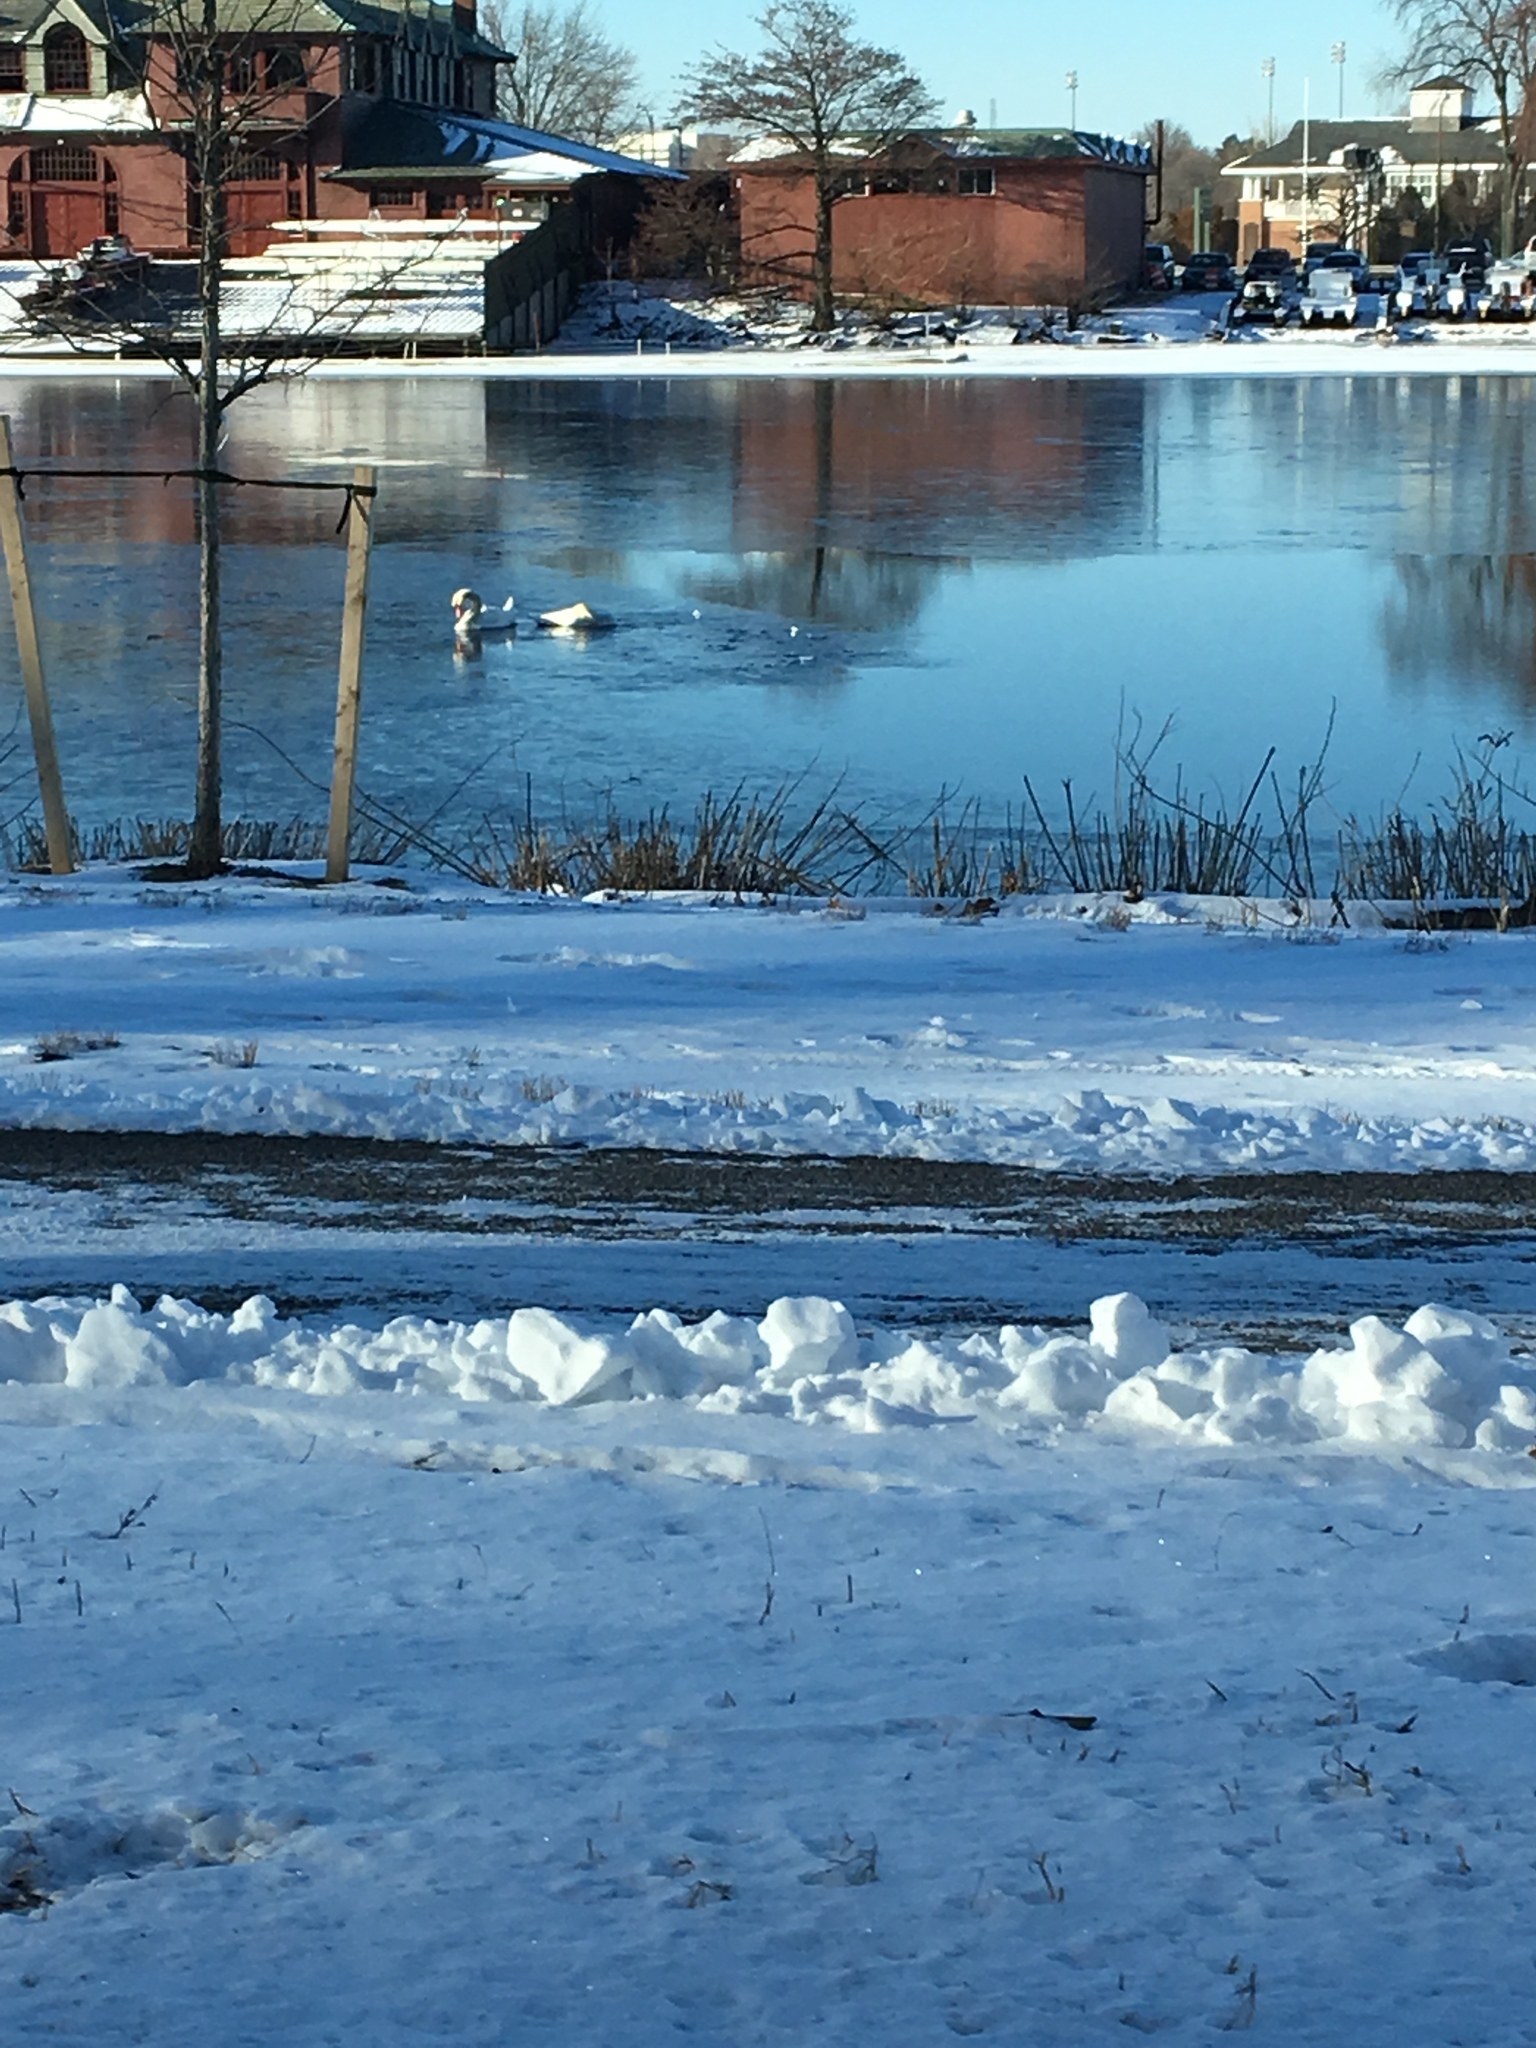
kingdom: Animalia
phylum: Chordata
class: Aves
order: Anseriformes
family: Anatidae
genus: Cygnus
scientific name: Cygnus olor
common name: Mute swan
